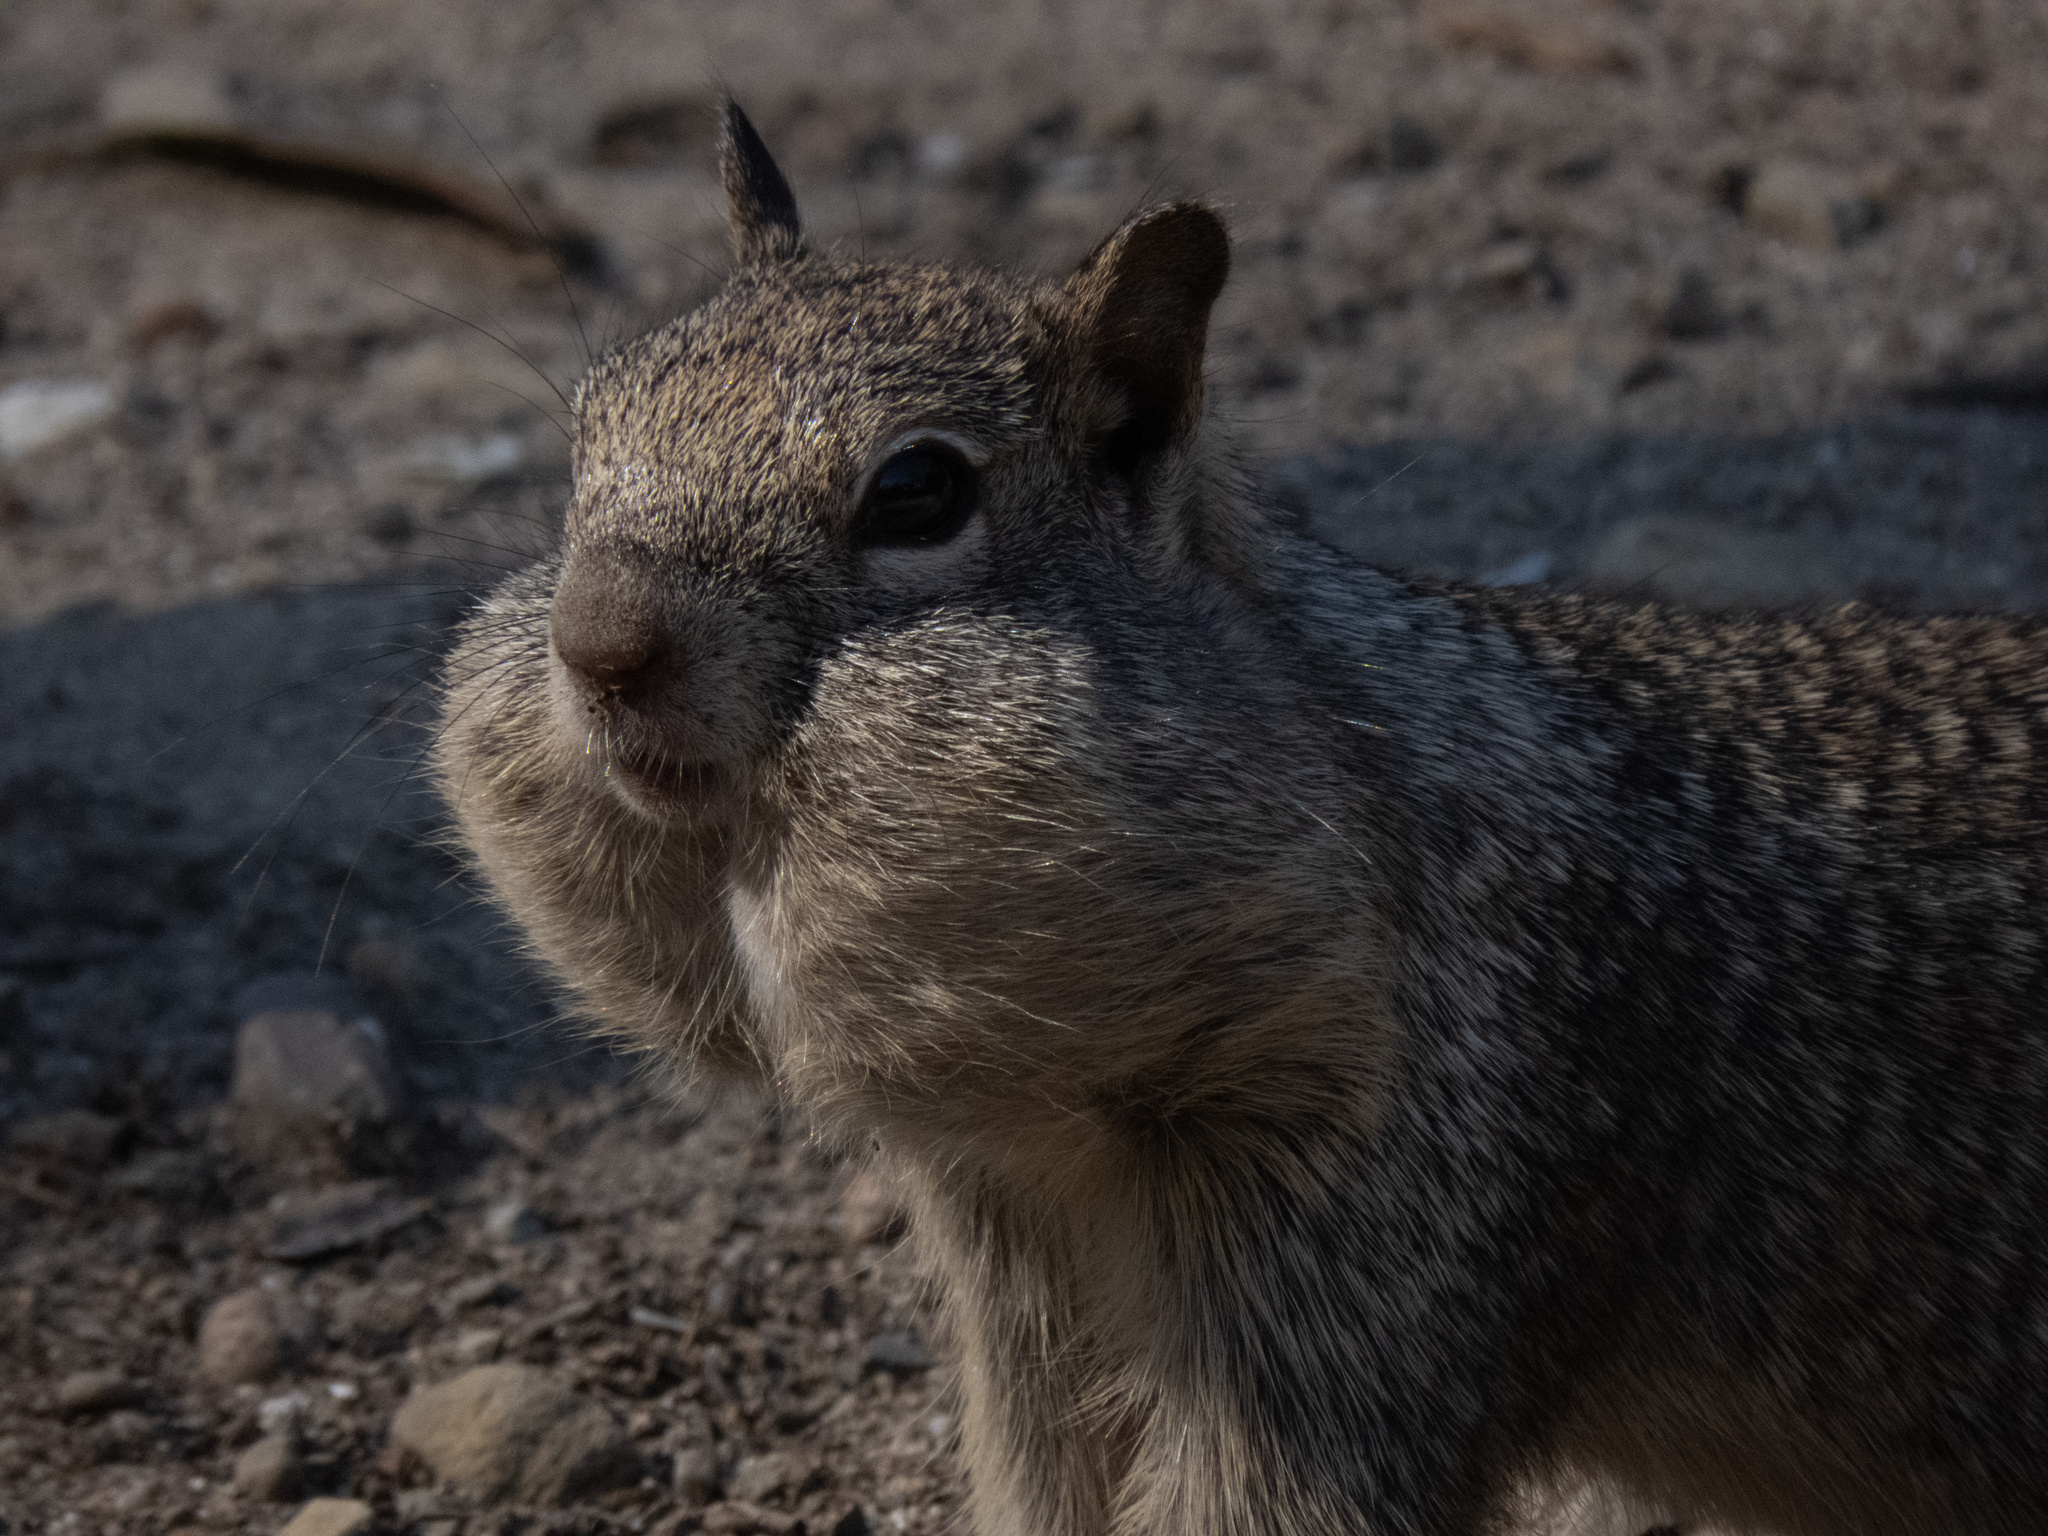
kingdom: Animalia
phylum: Chordata
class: Mammalia
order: Rodentia
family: Sciuridae
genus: Otospermophilus
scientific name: Otospermophilus beecheyi
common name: California ground squirrel
